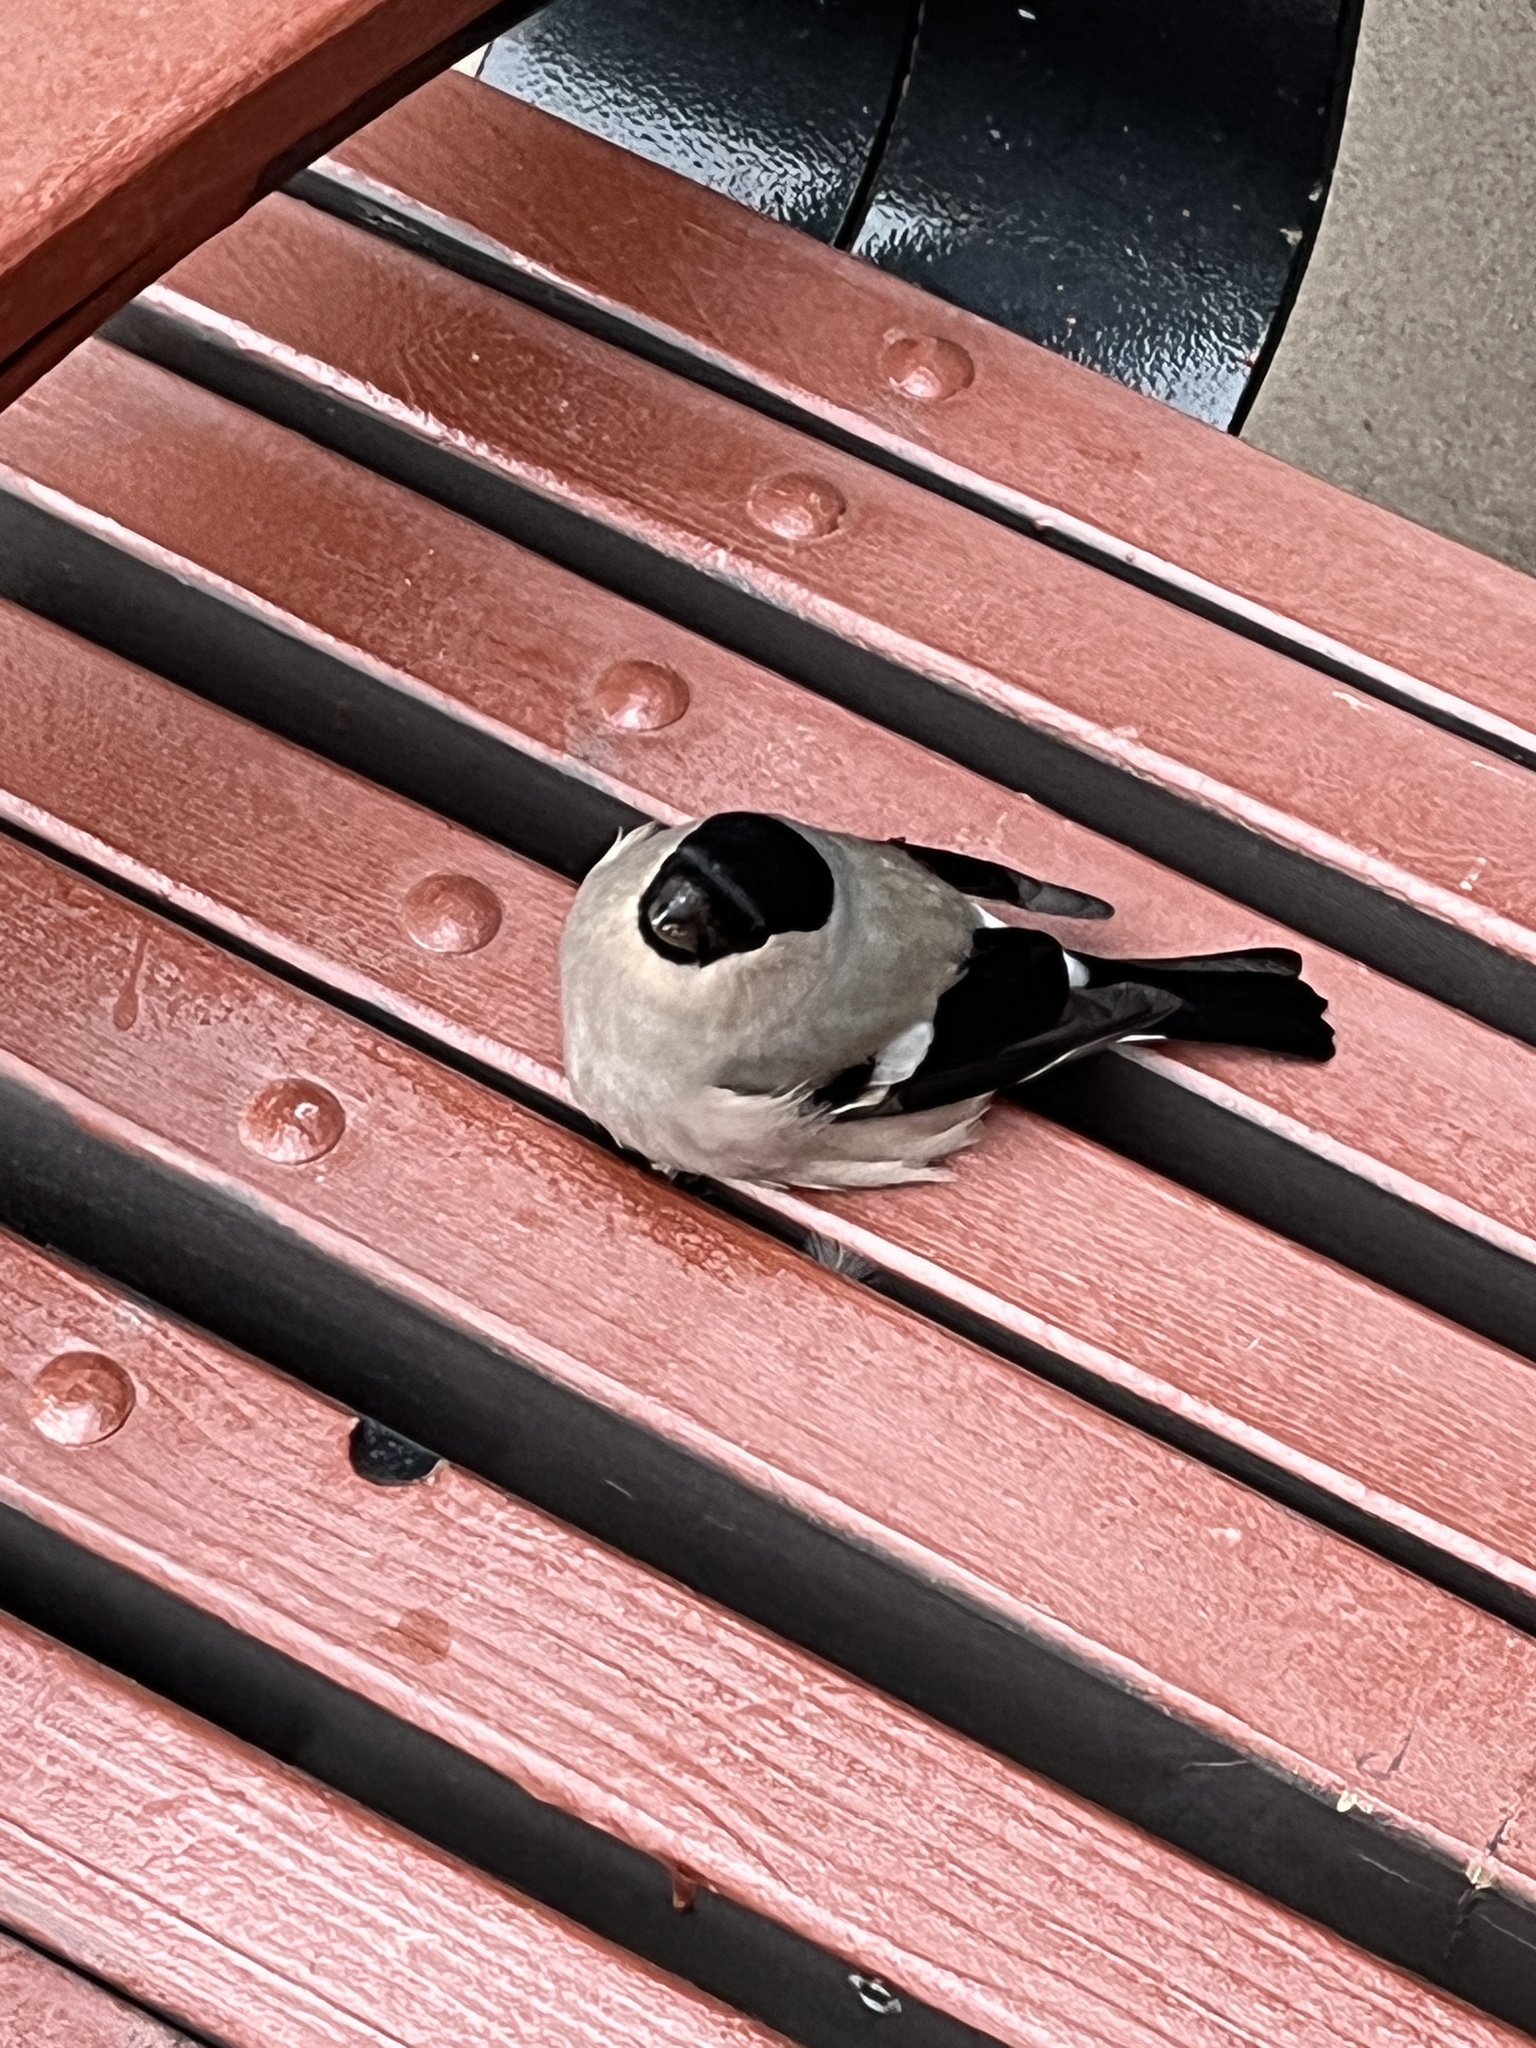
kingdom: Animalia
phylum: Chordata
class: Aves
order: Passeriformes
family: Fringillidae
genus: Pyrrhula
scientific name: Pyrrhula pyrrhula
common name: Eurasian bullfinch
